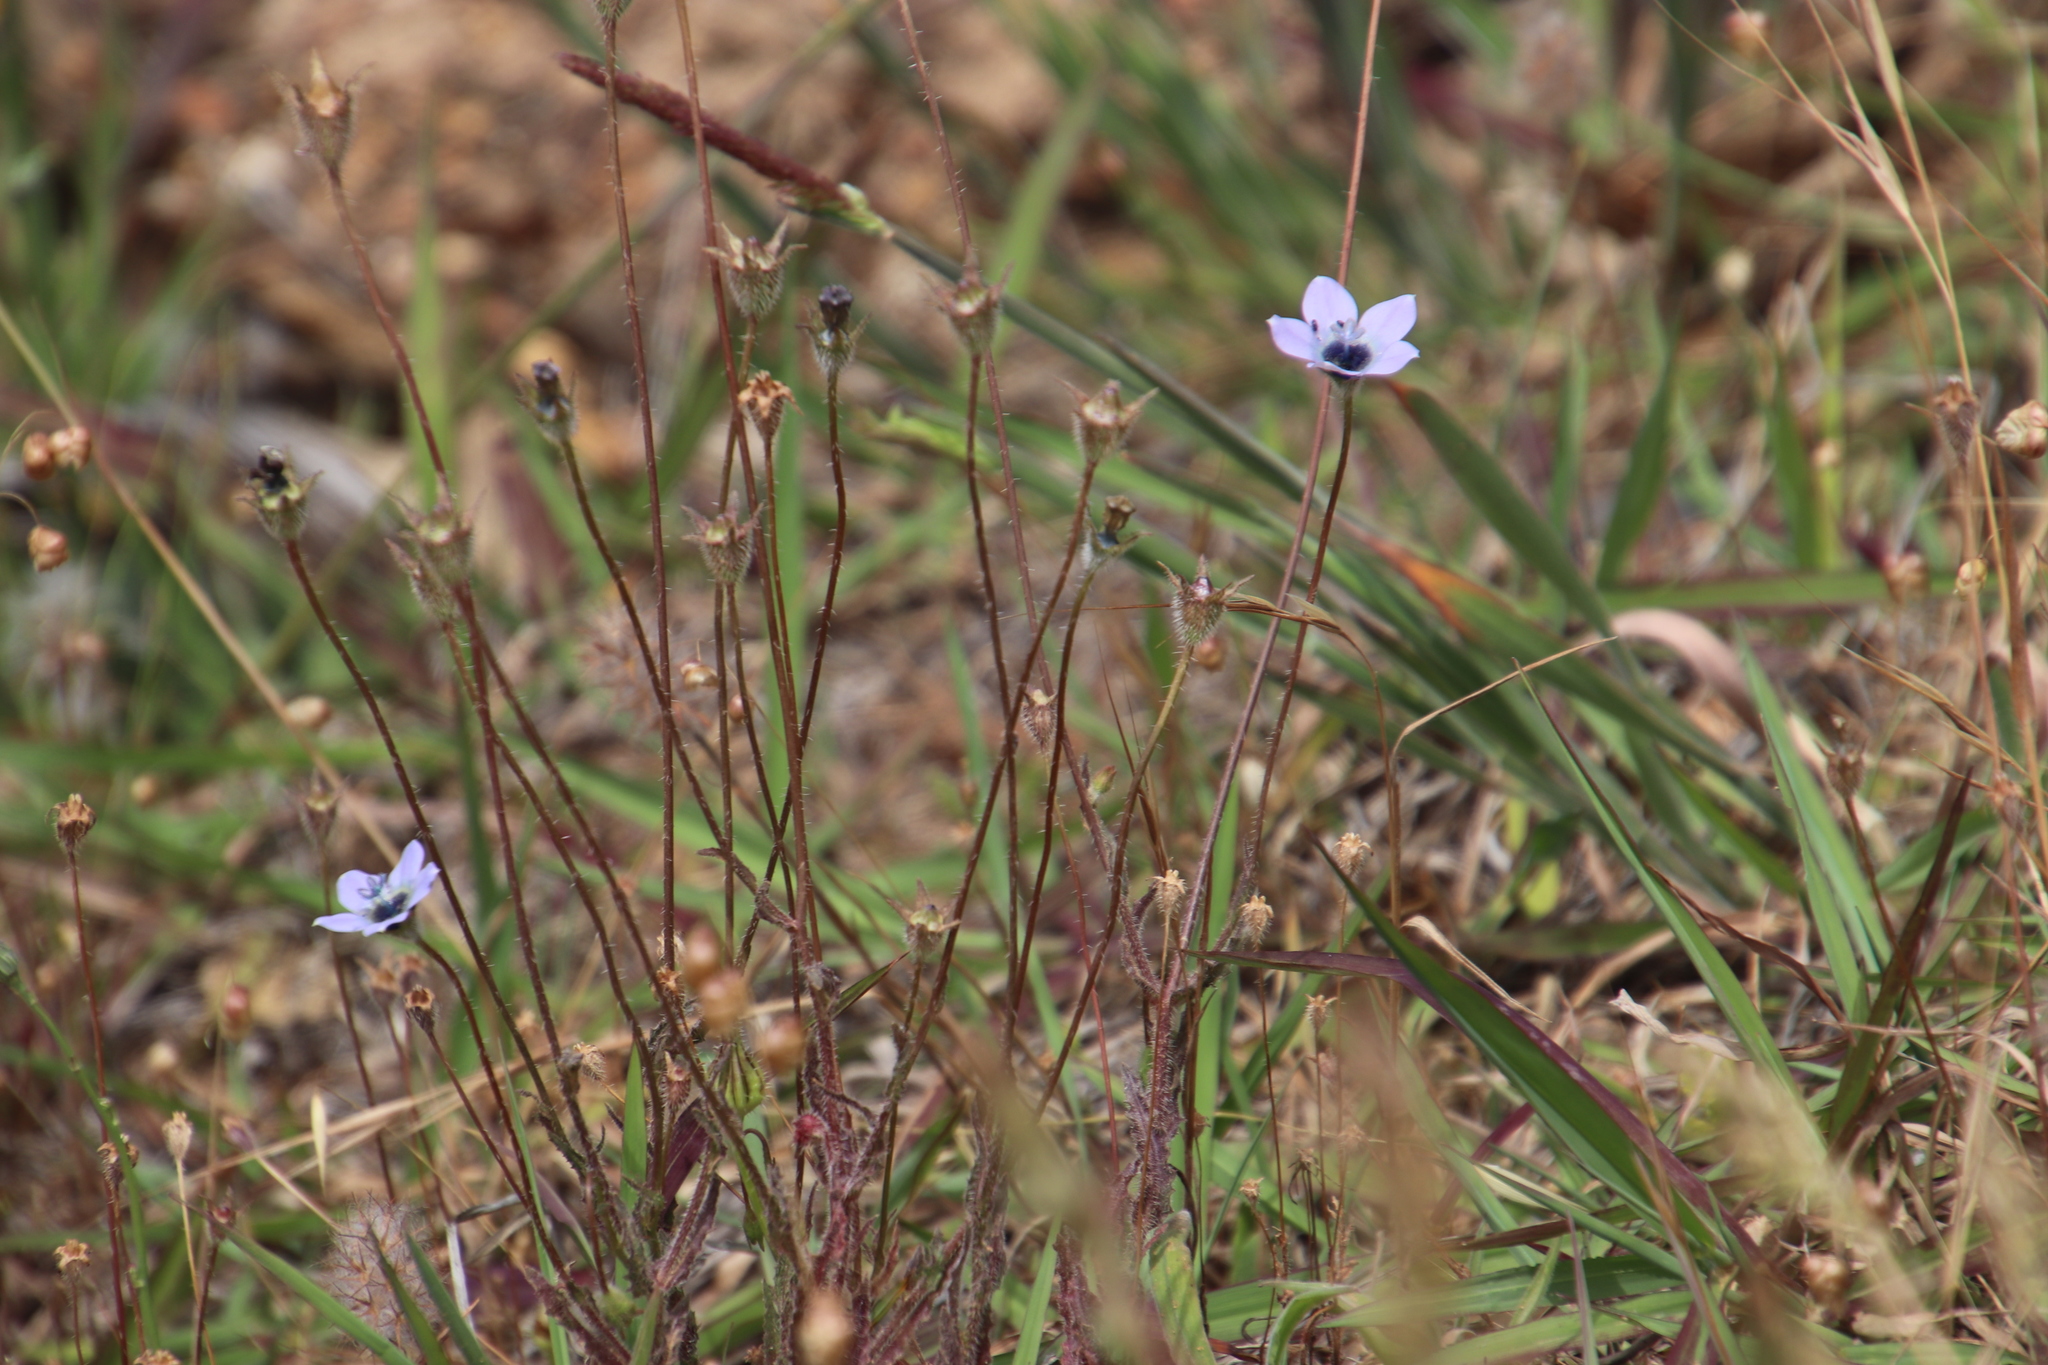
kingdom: Plantae
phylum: Tracheophyta
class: Magnoliopsida
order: Asterales
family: Campanulaceae
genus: Wahlenbergia
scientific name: Wahlenbergia capensis
